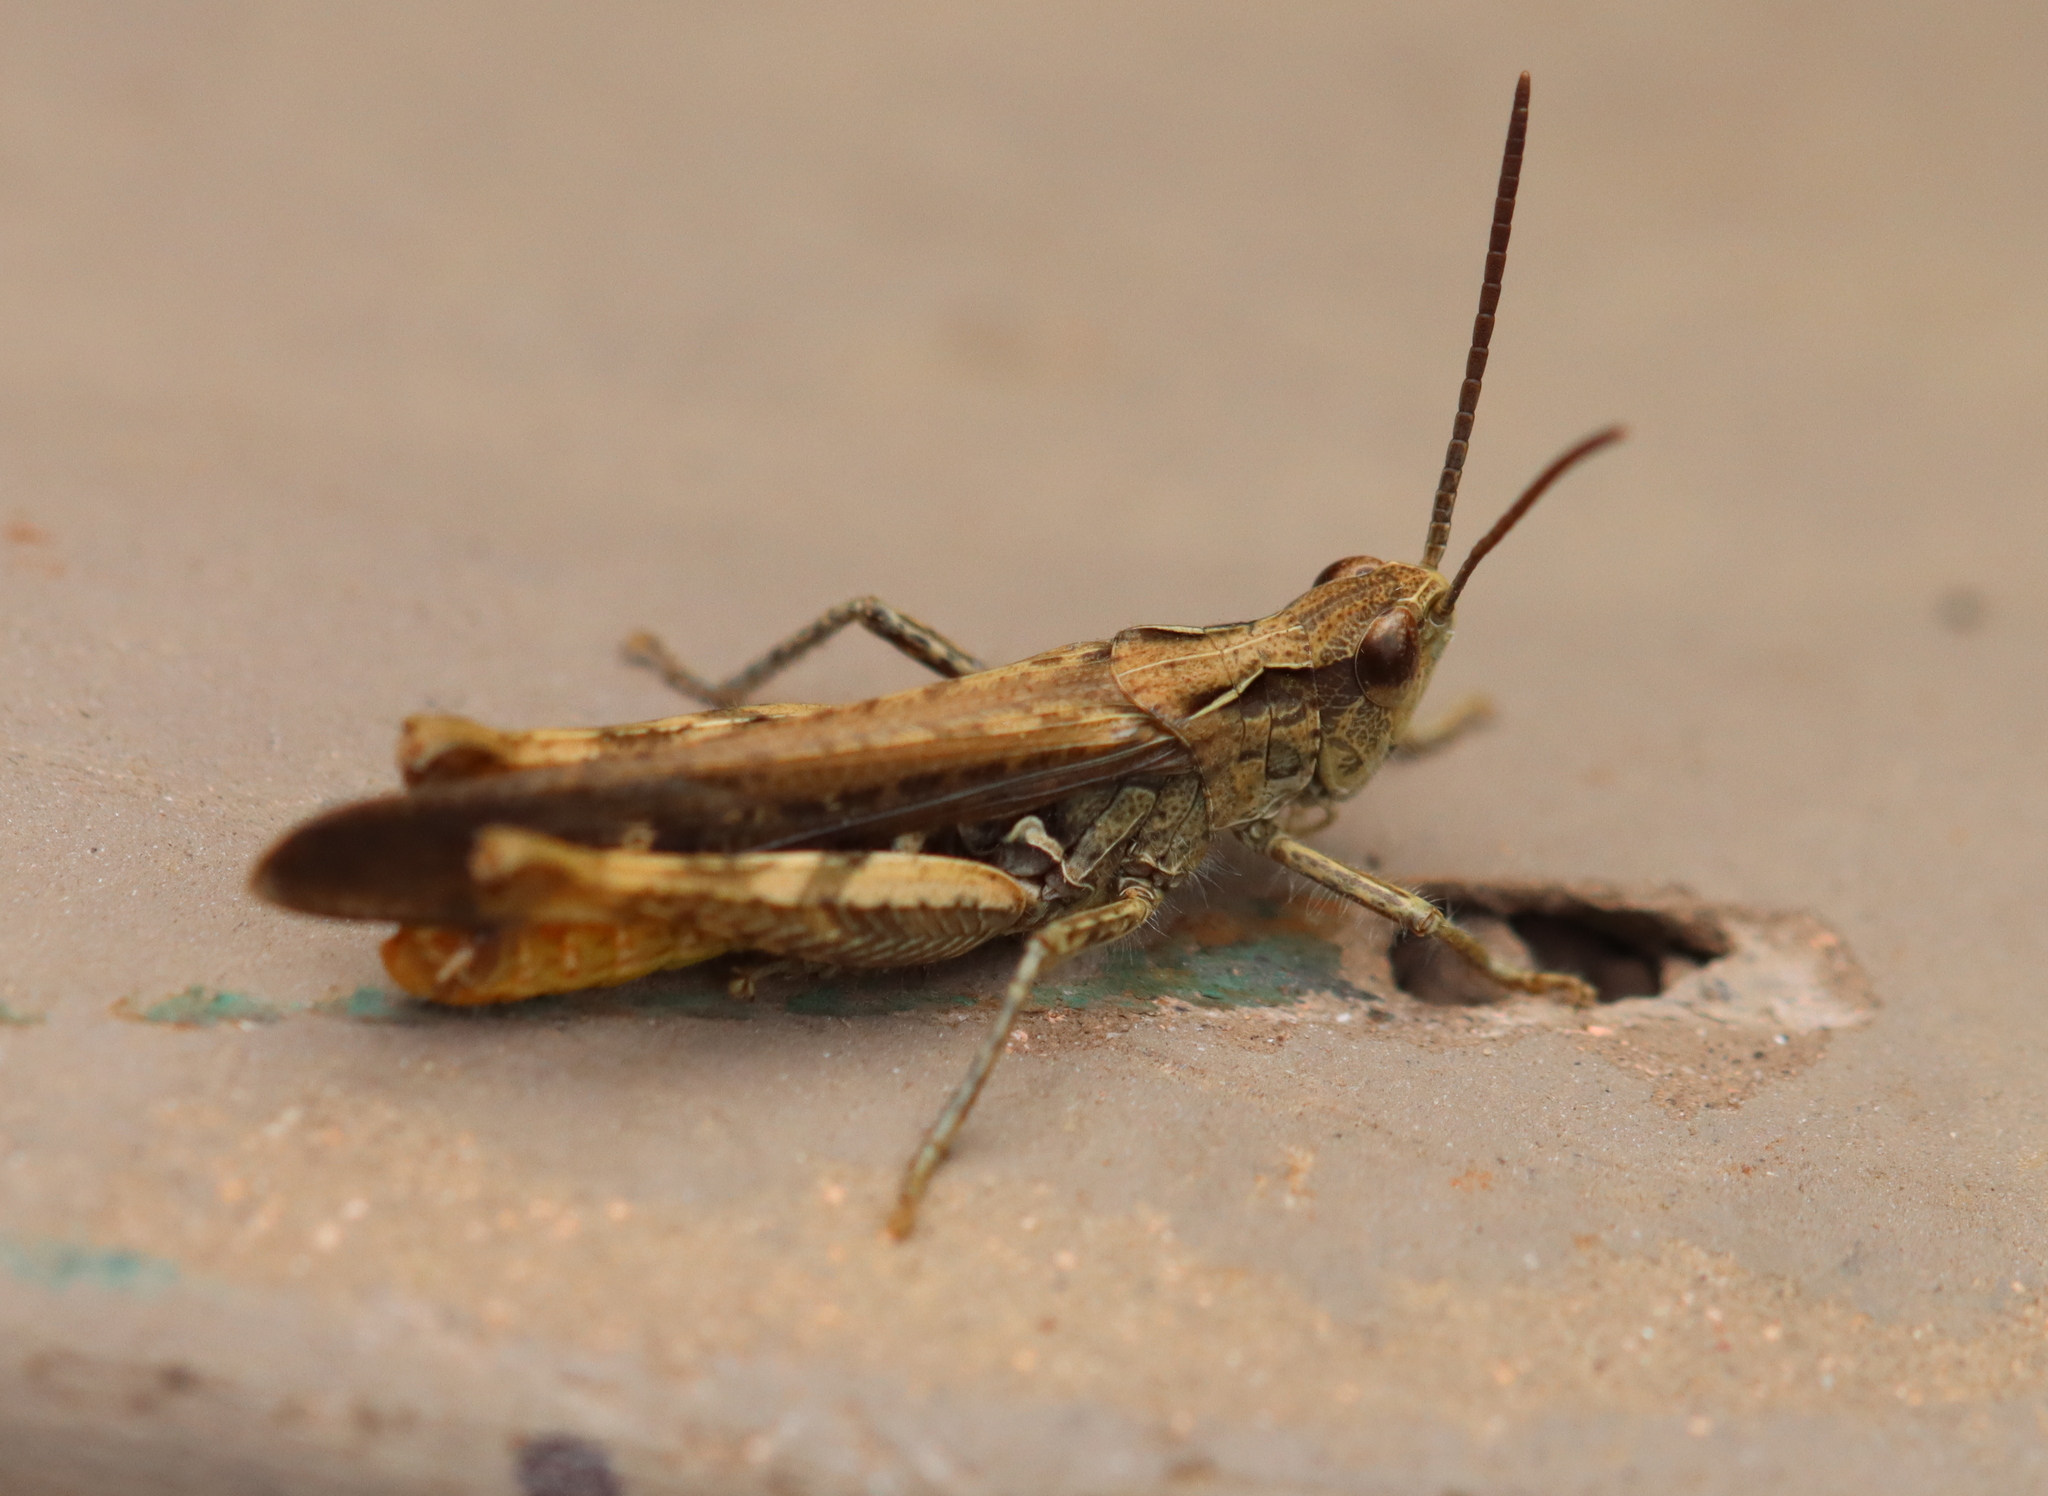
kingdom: Animalia
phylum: Arthropoda
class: Insecta
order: Orthoptera
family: Acrididae
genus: Chorthippus
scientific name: Chorthippus brunneus
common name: Field grasshopper
